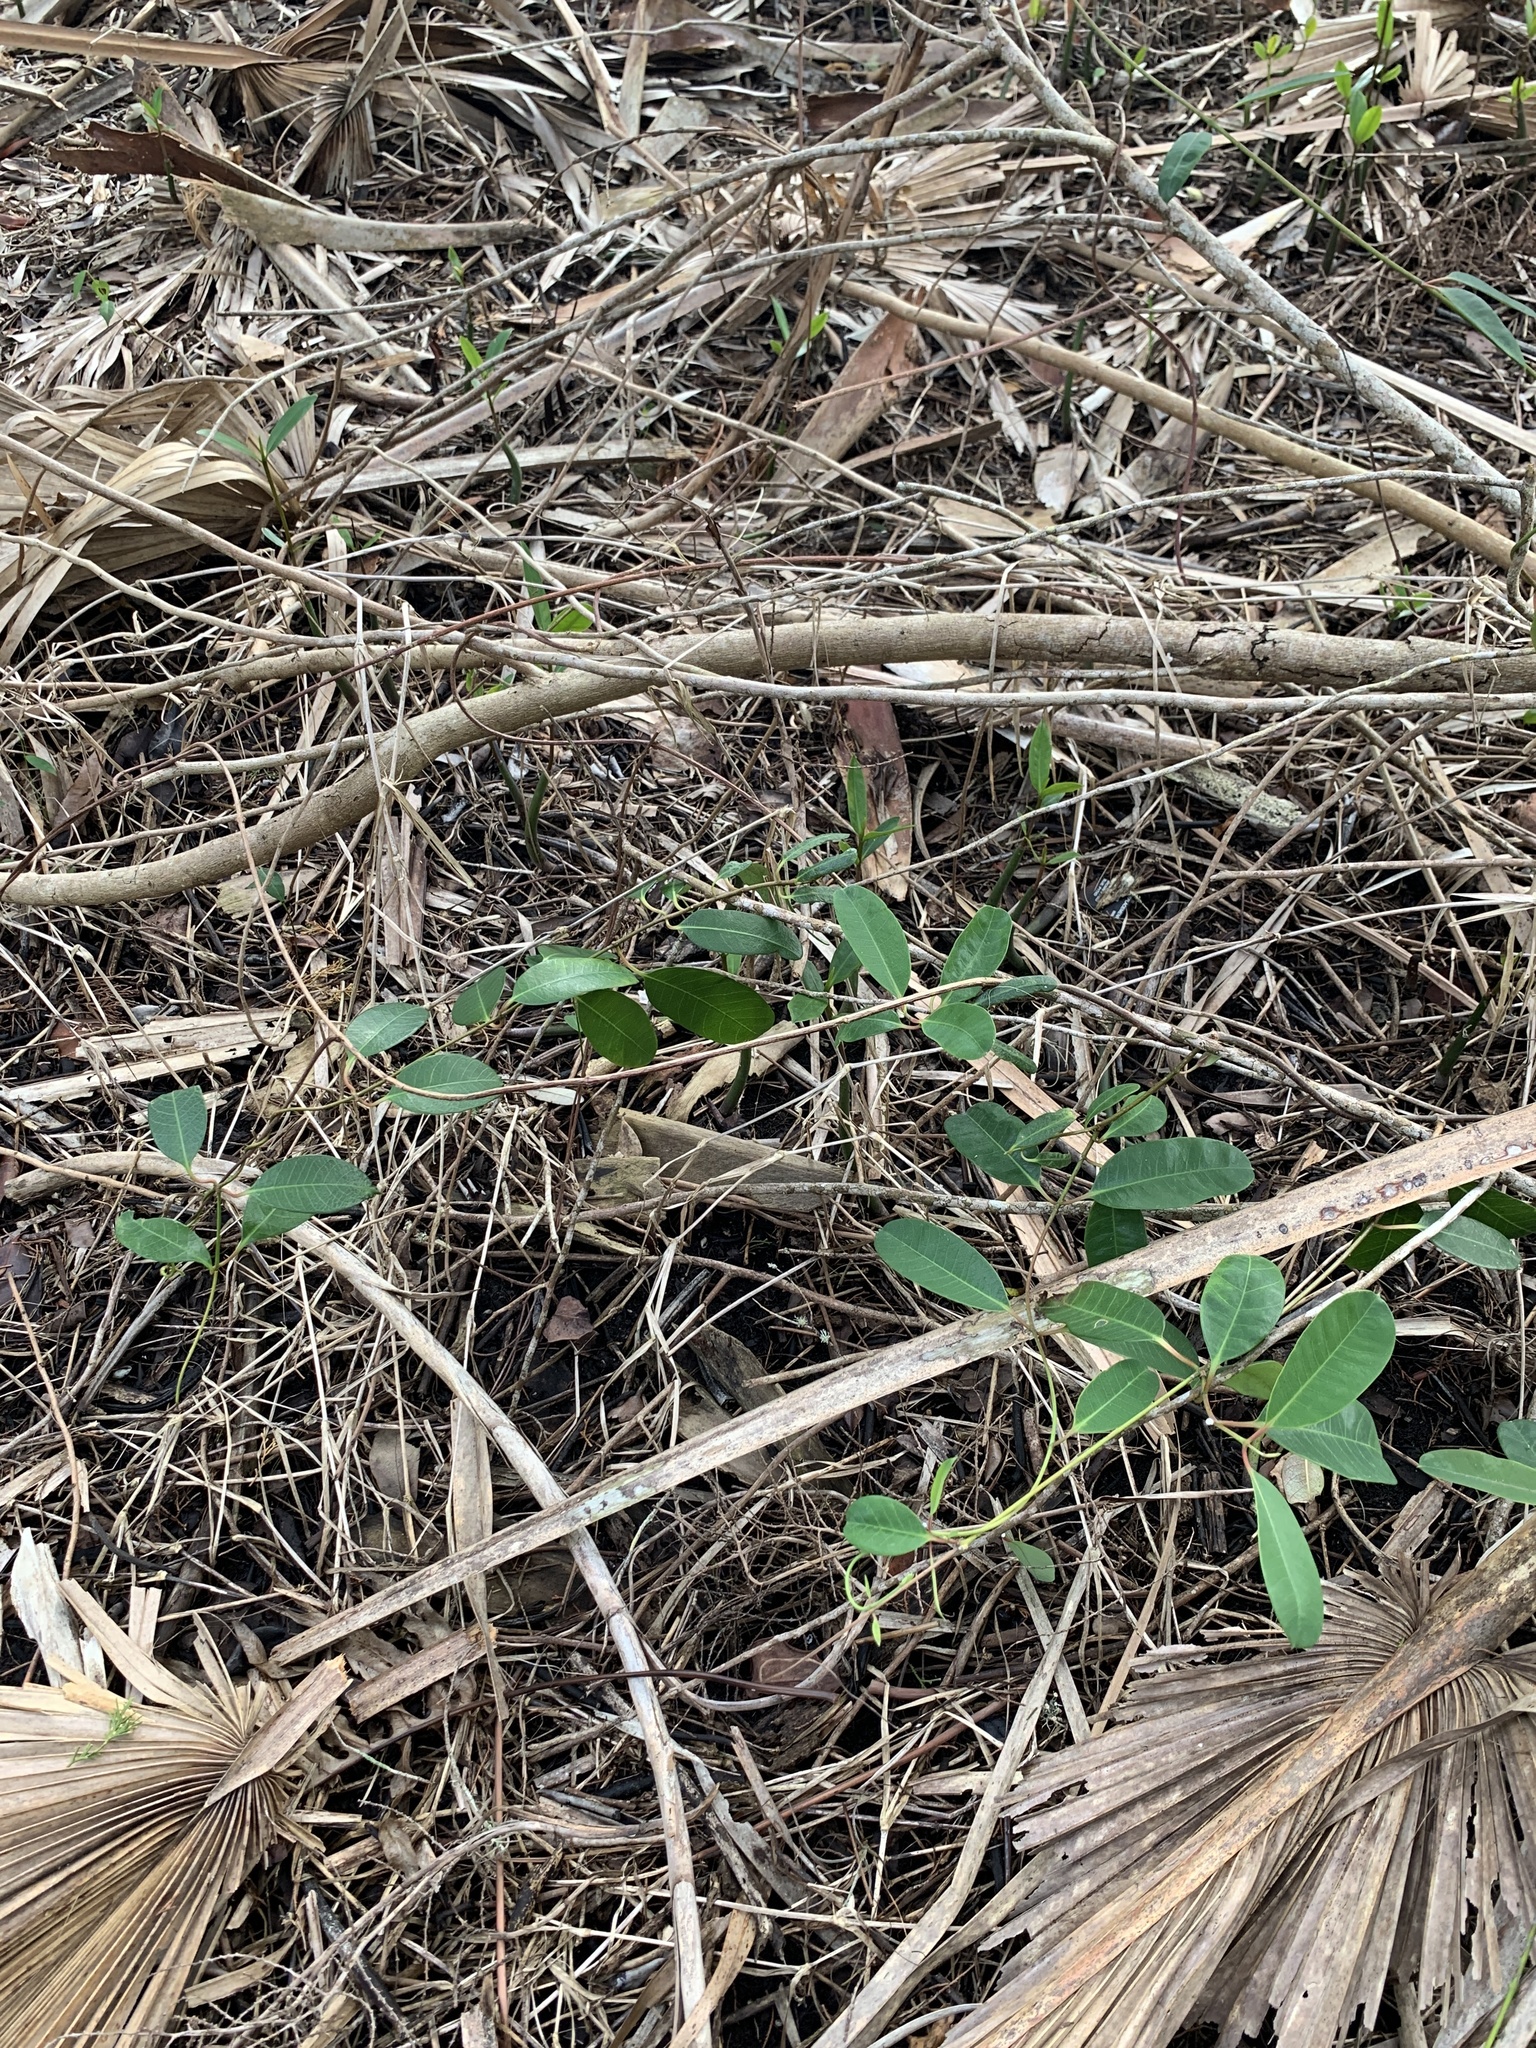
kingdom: Plantae
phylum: Tracheophyta
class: Magnoliopsida
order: Gentianales
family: Apocynaceae
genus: Rhabdadenia
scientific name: Rhabdadenia biflora
